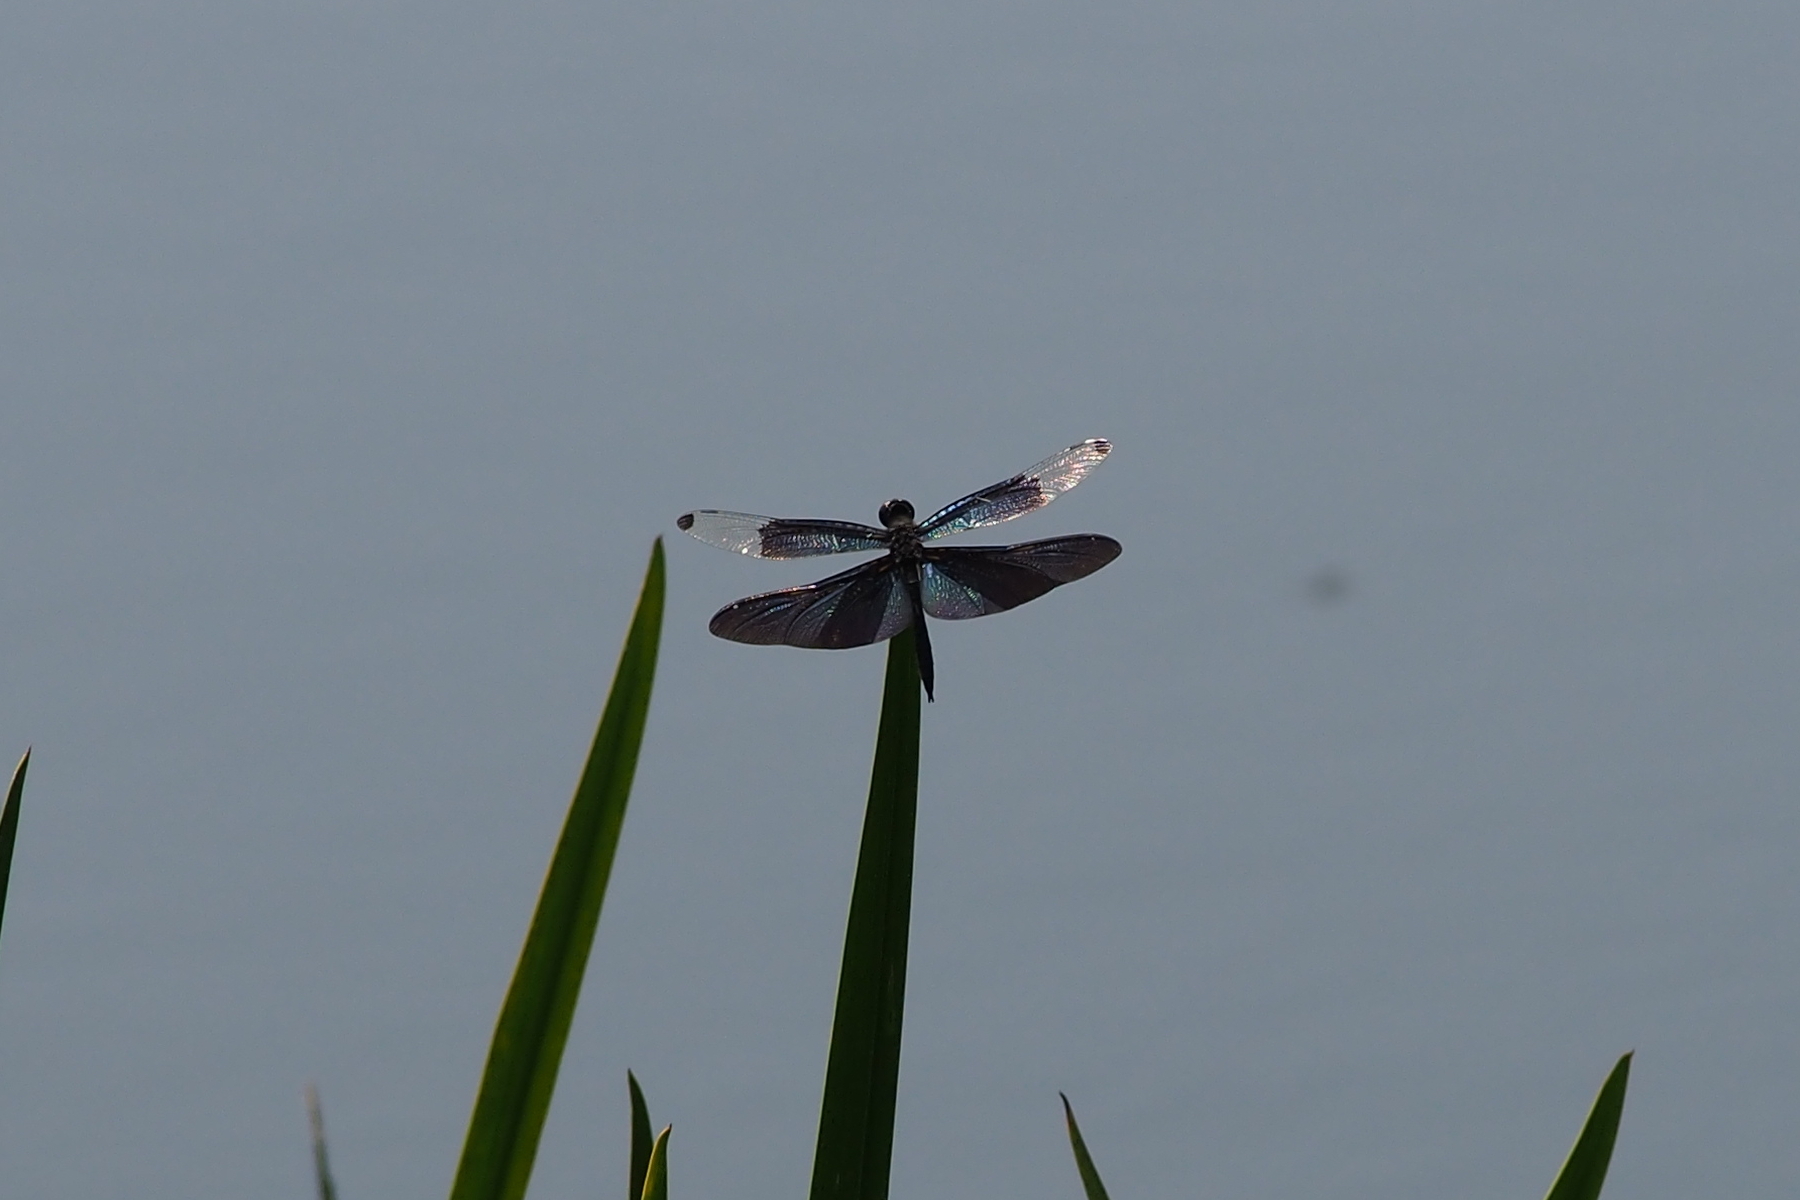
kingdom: Animalia
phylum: Arthropoda
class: Insecta
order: Odonata
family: Libellulidae
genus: Rhyothemis
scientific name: Rhyothemis fuliginosa
